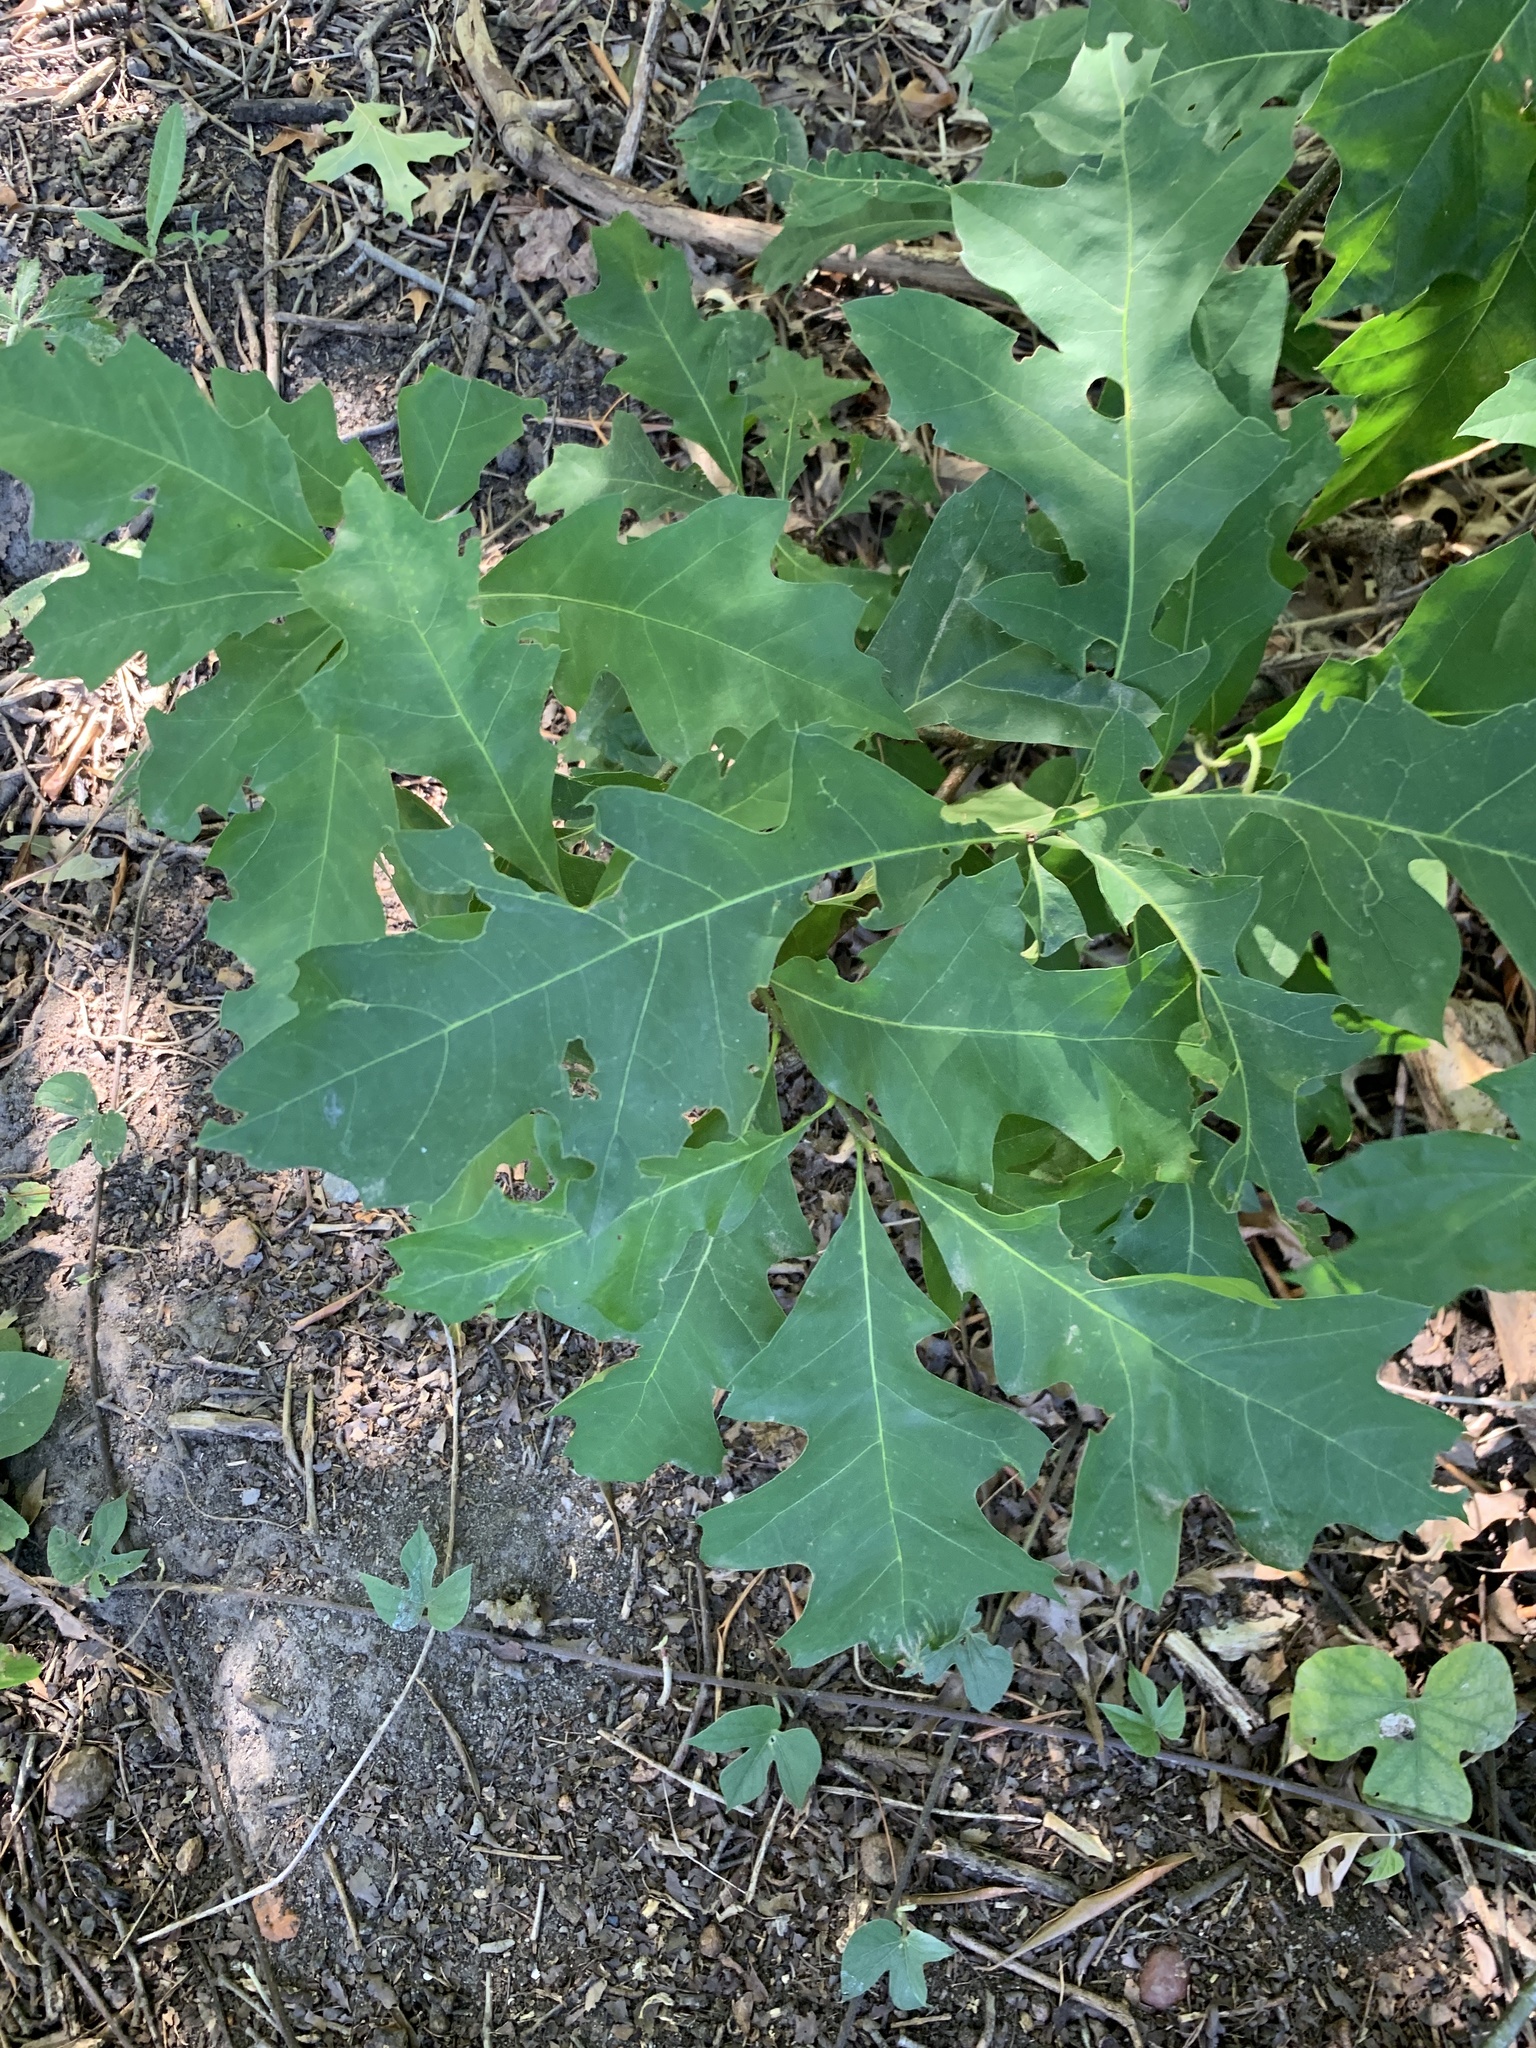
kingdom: Plantae
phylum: Tracheophyta
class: Magnoliopsida
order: Fagales
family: Fagaceae
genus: Quercus
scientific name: Quercus palustris
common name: Pin oak
